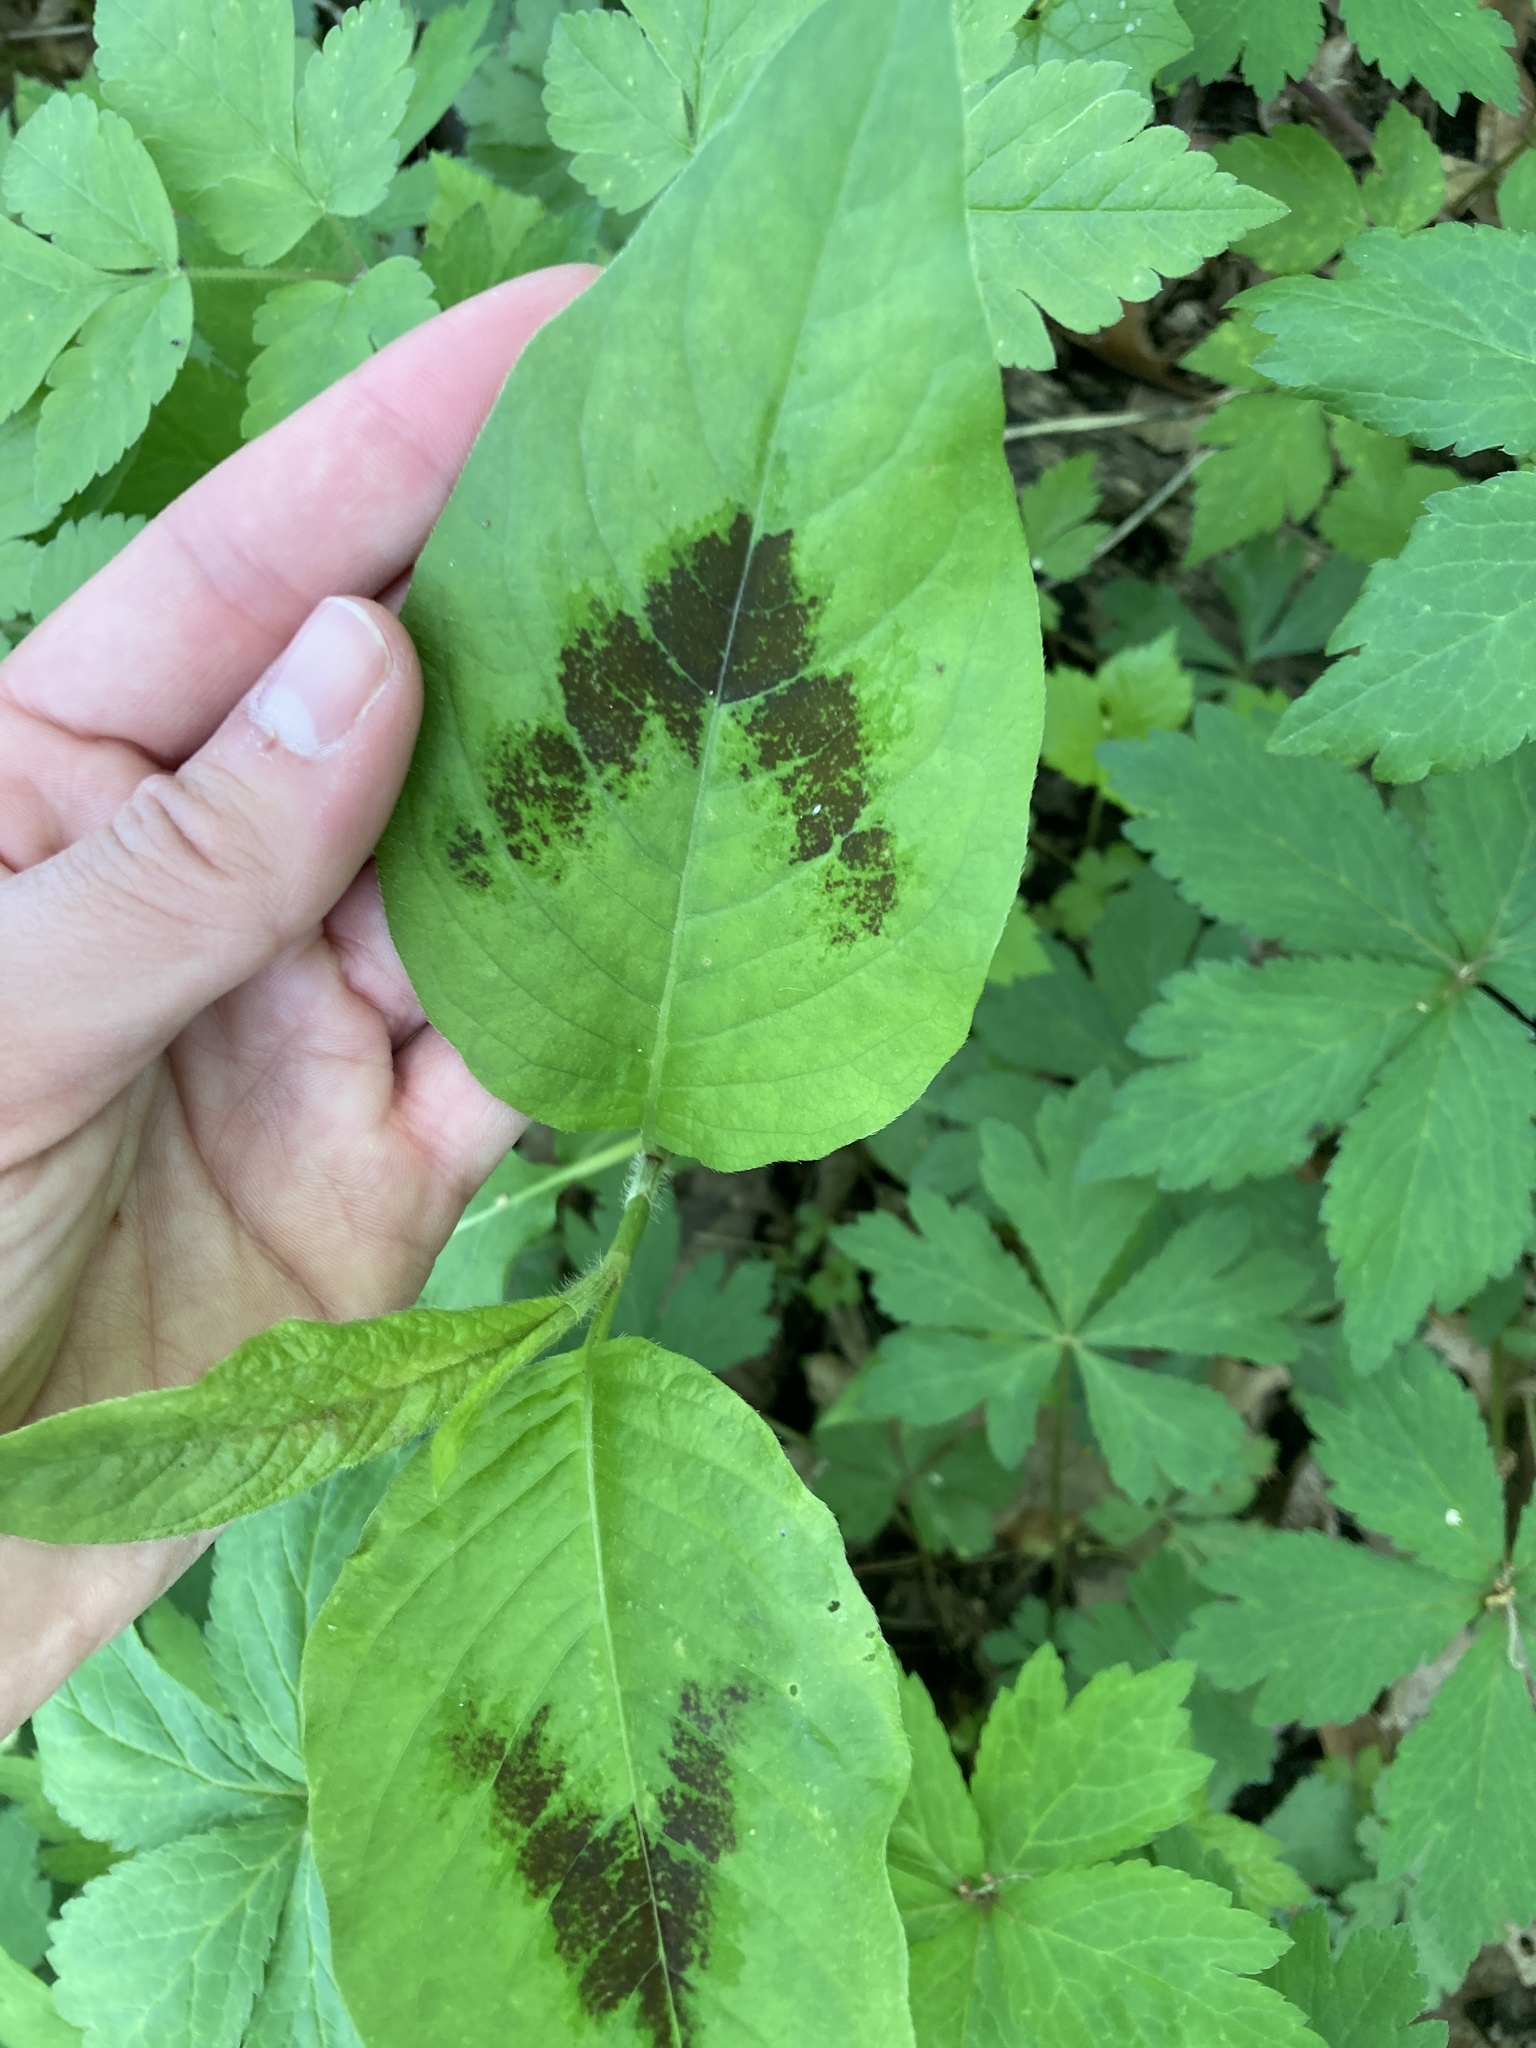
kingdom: Plantae
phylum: Tracheophyta
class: Magnoliopsida
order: Caryophyllales
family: Polygonaceae
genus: Persicaria
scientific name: Persicaria virginiana
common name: Jumpseed
